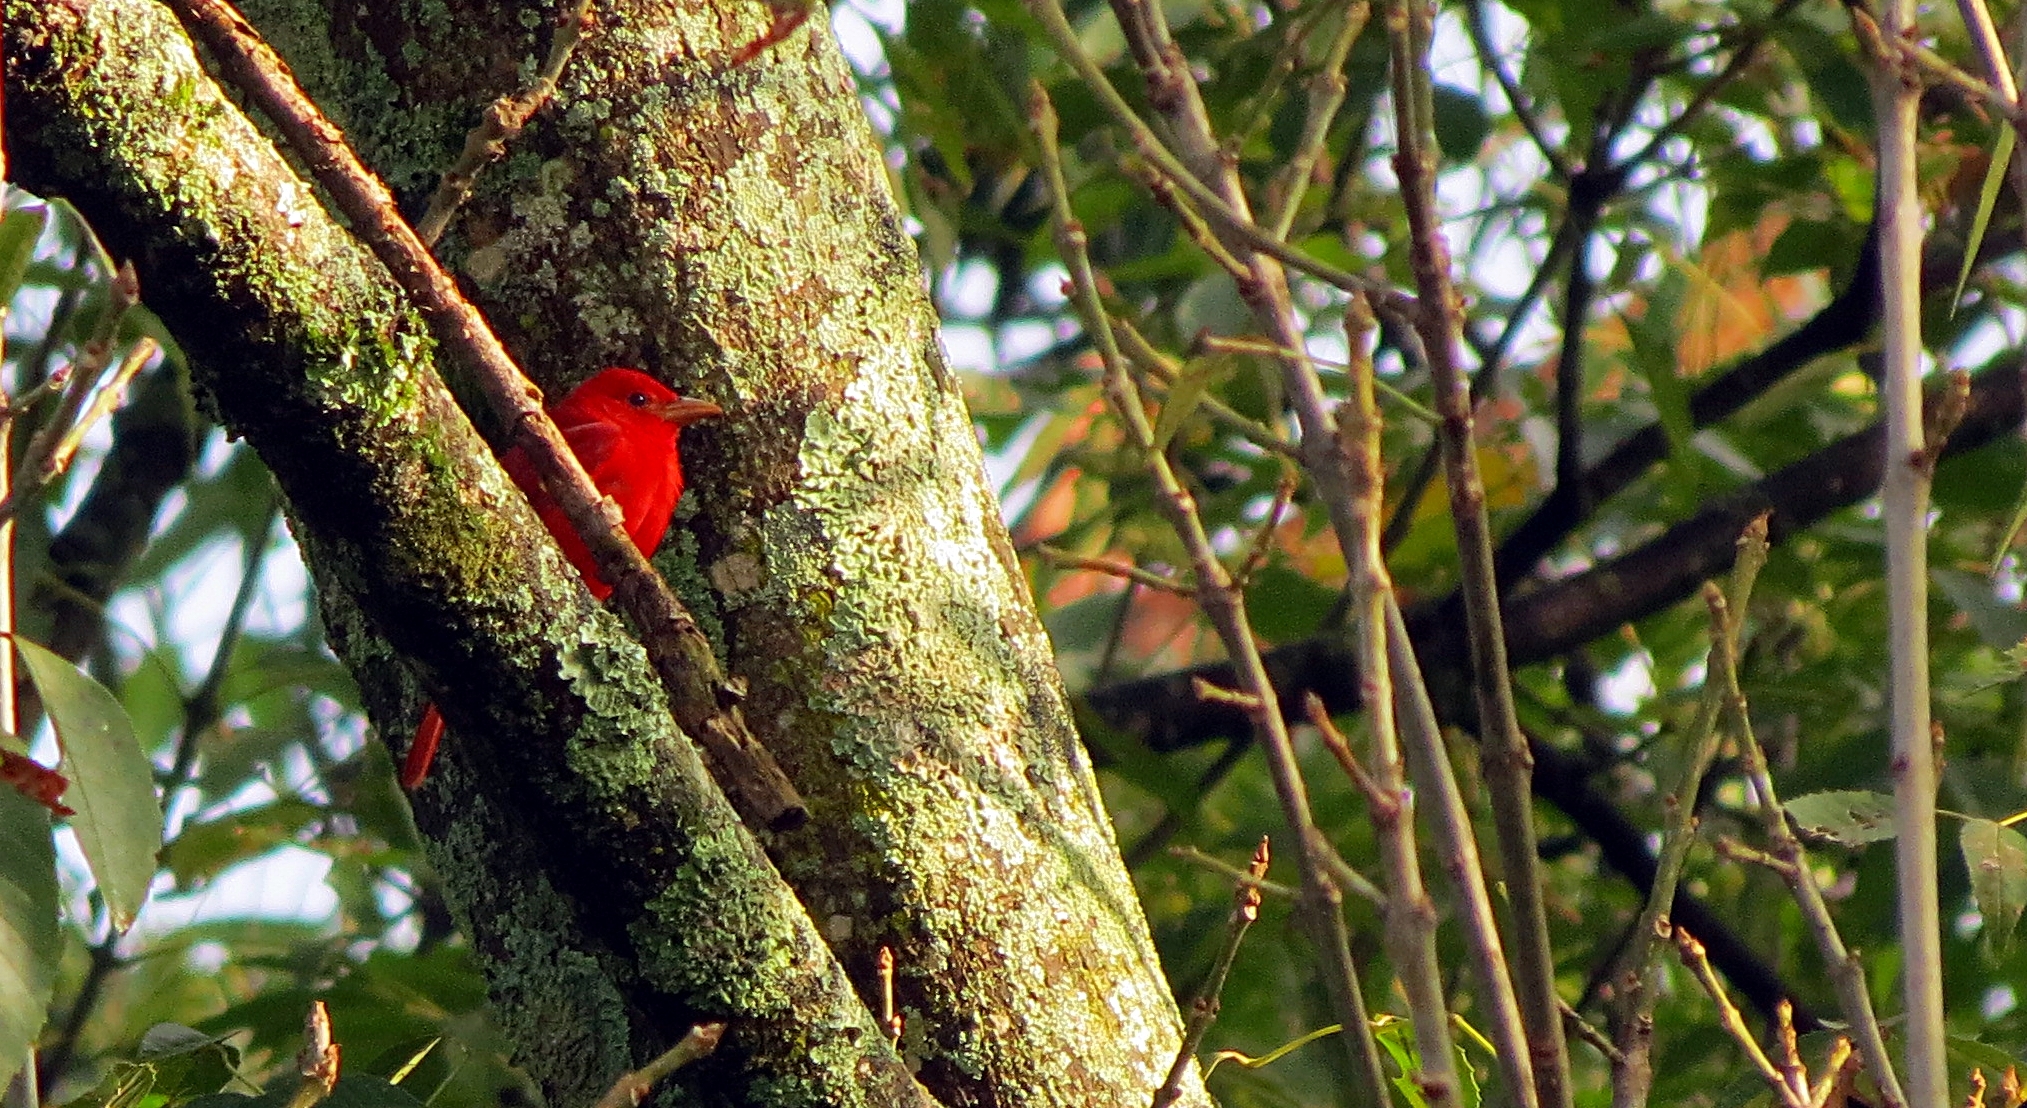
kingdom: Animalia
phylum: Chordata
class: Aves
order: Passeriformes
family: Cardinalidae
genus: Piranga
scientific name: Piranga rubra
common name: Summer tanager
